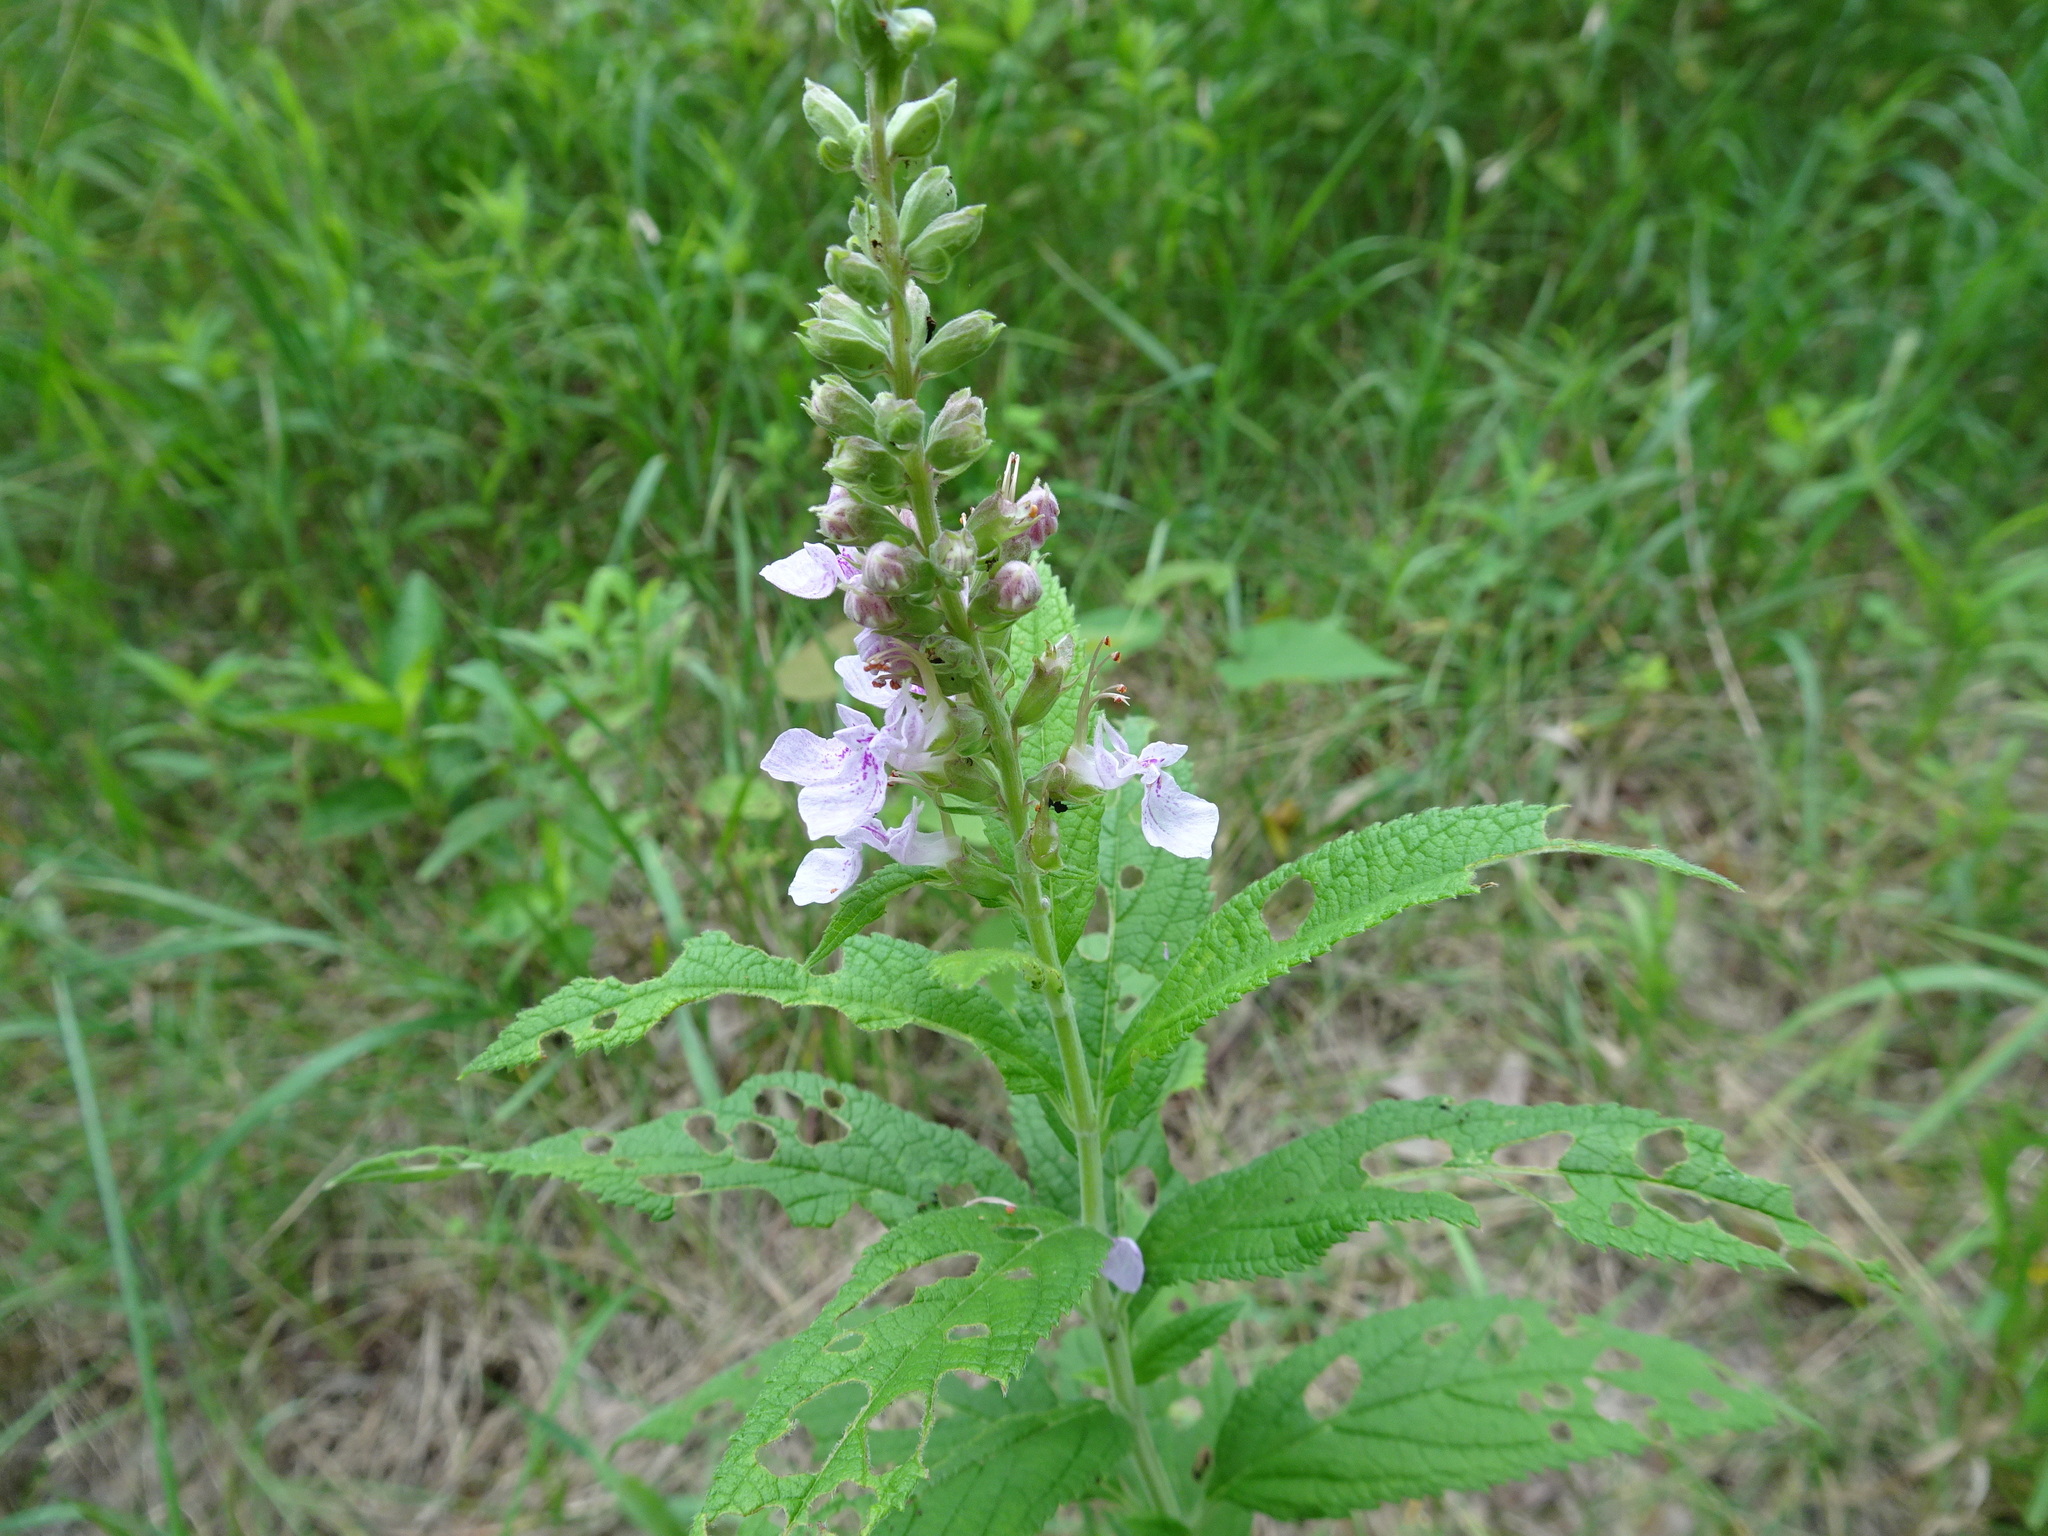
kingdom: Plantae
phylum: Tracheophyta
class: Magnoliopsida
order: Lamiales
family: Lamiaceae
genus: Teucrium
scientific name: Teucrium canadense
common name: American germander
